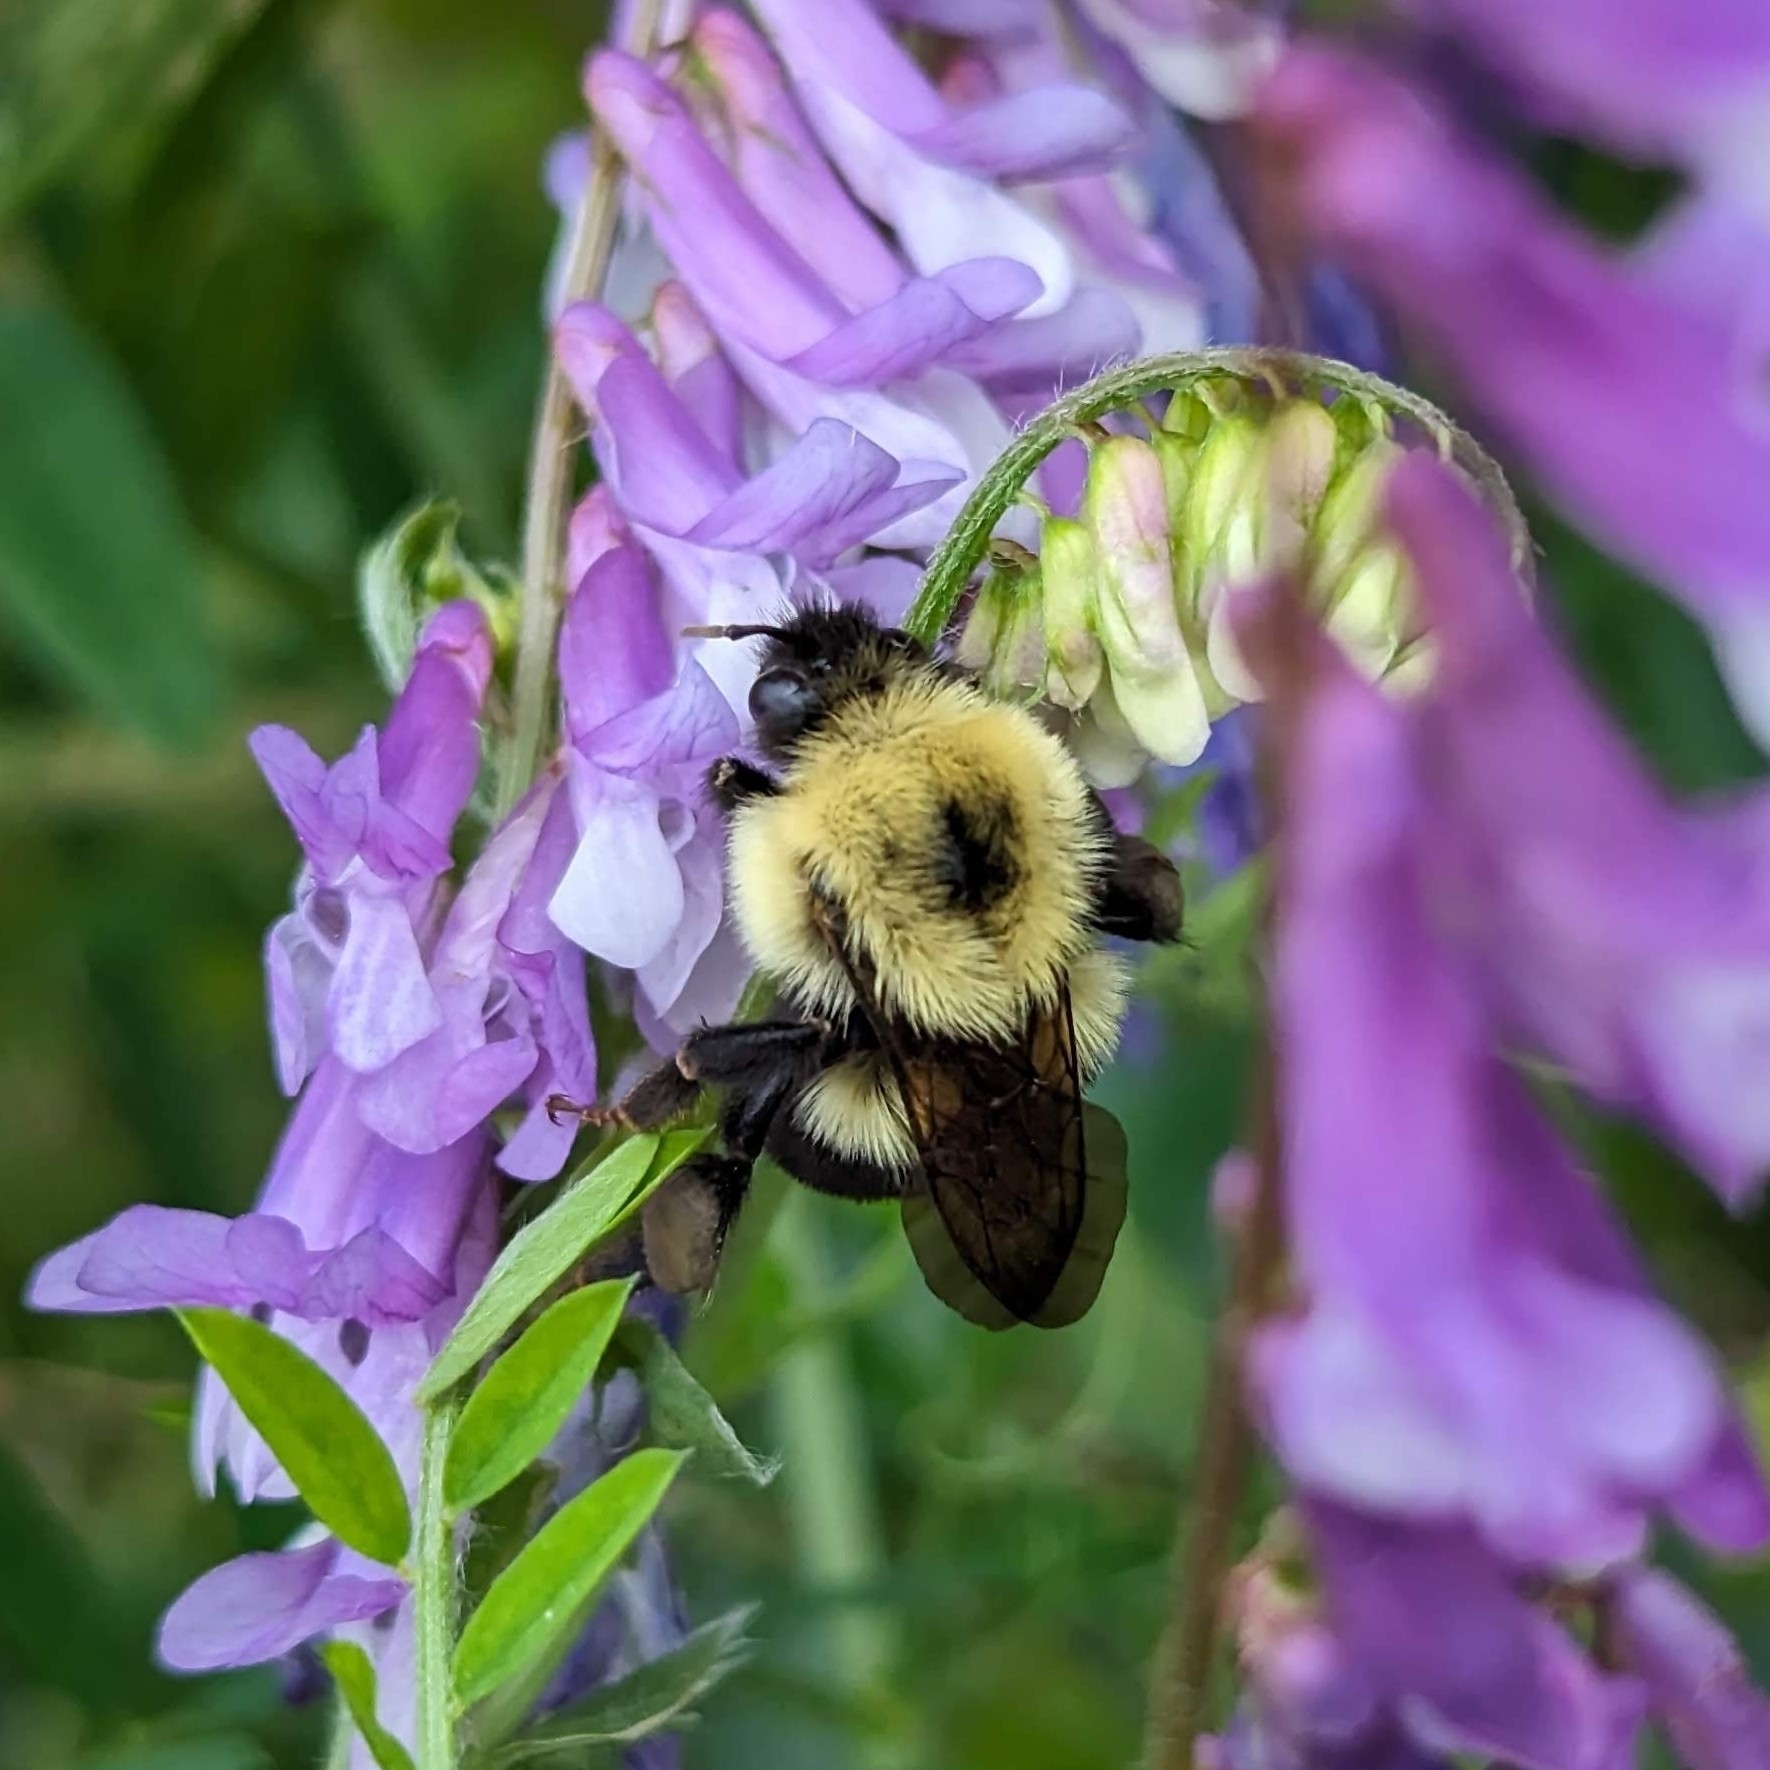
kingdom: Animalia
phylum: Arthropoda
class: Insecta
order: Hymenoptera
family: Apidae
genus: Bombus
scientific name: Bombus bimaculatus
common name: Two-spotted bumble bee
